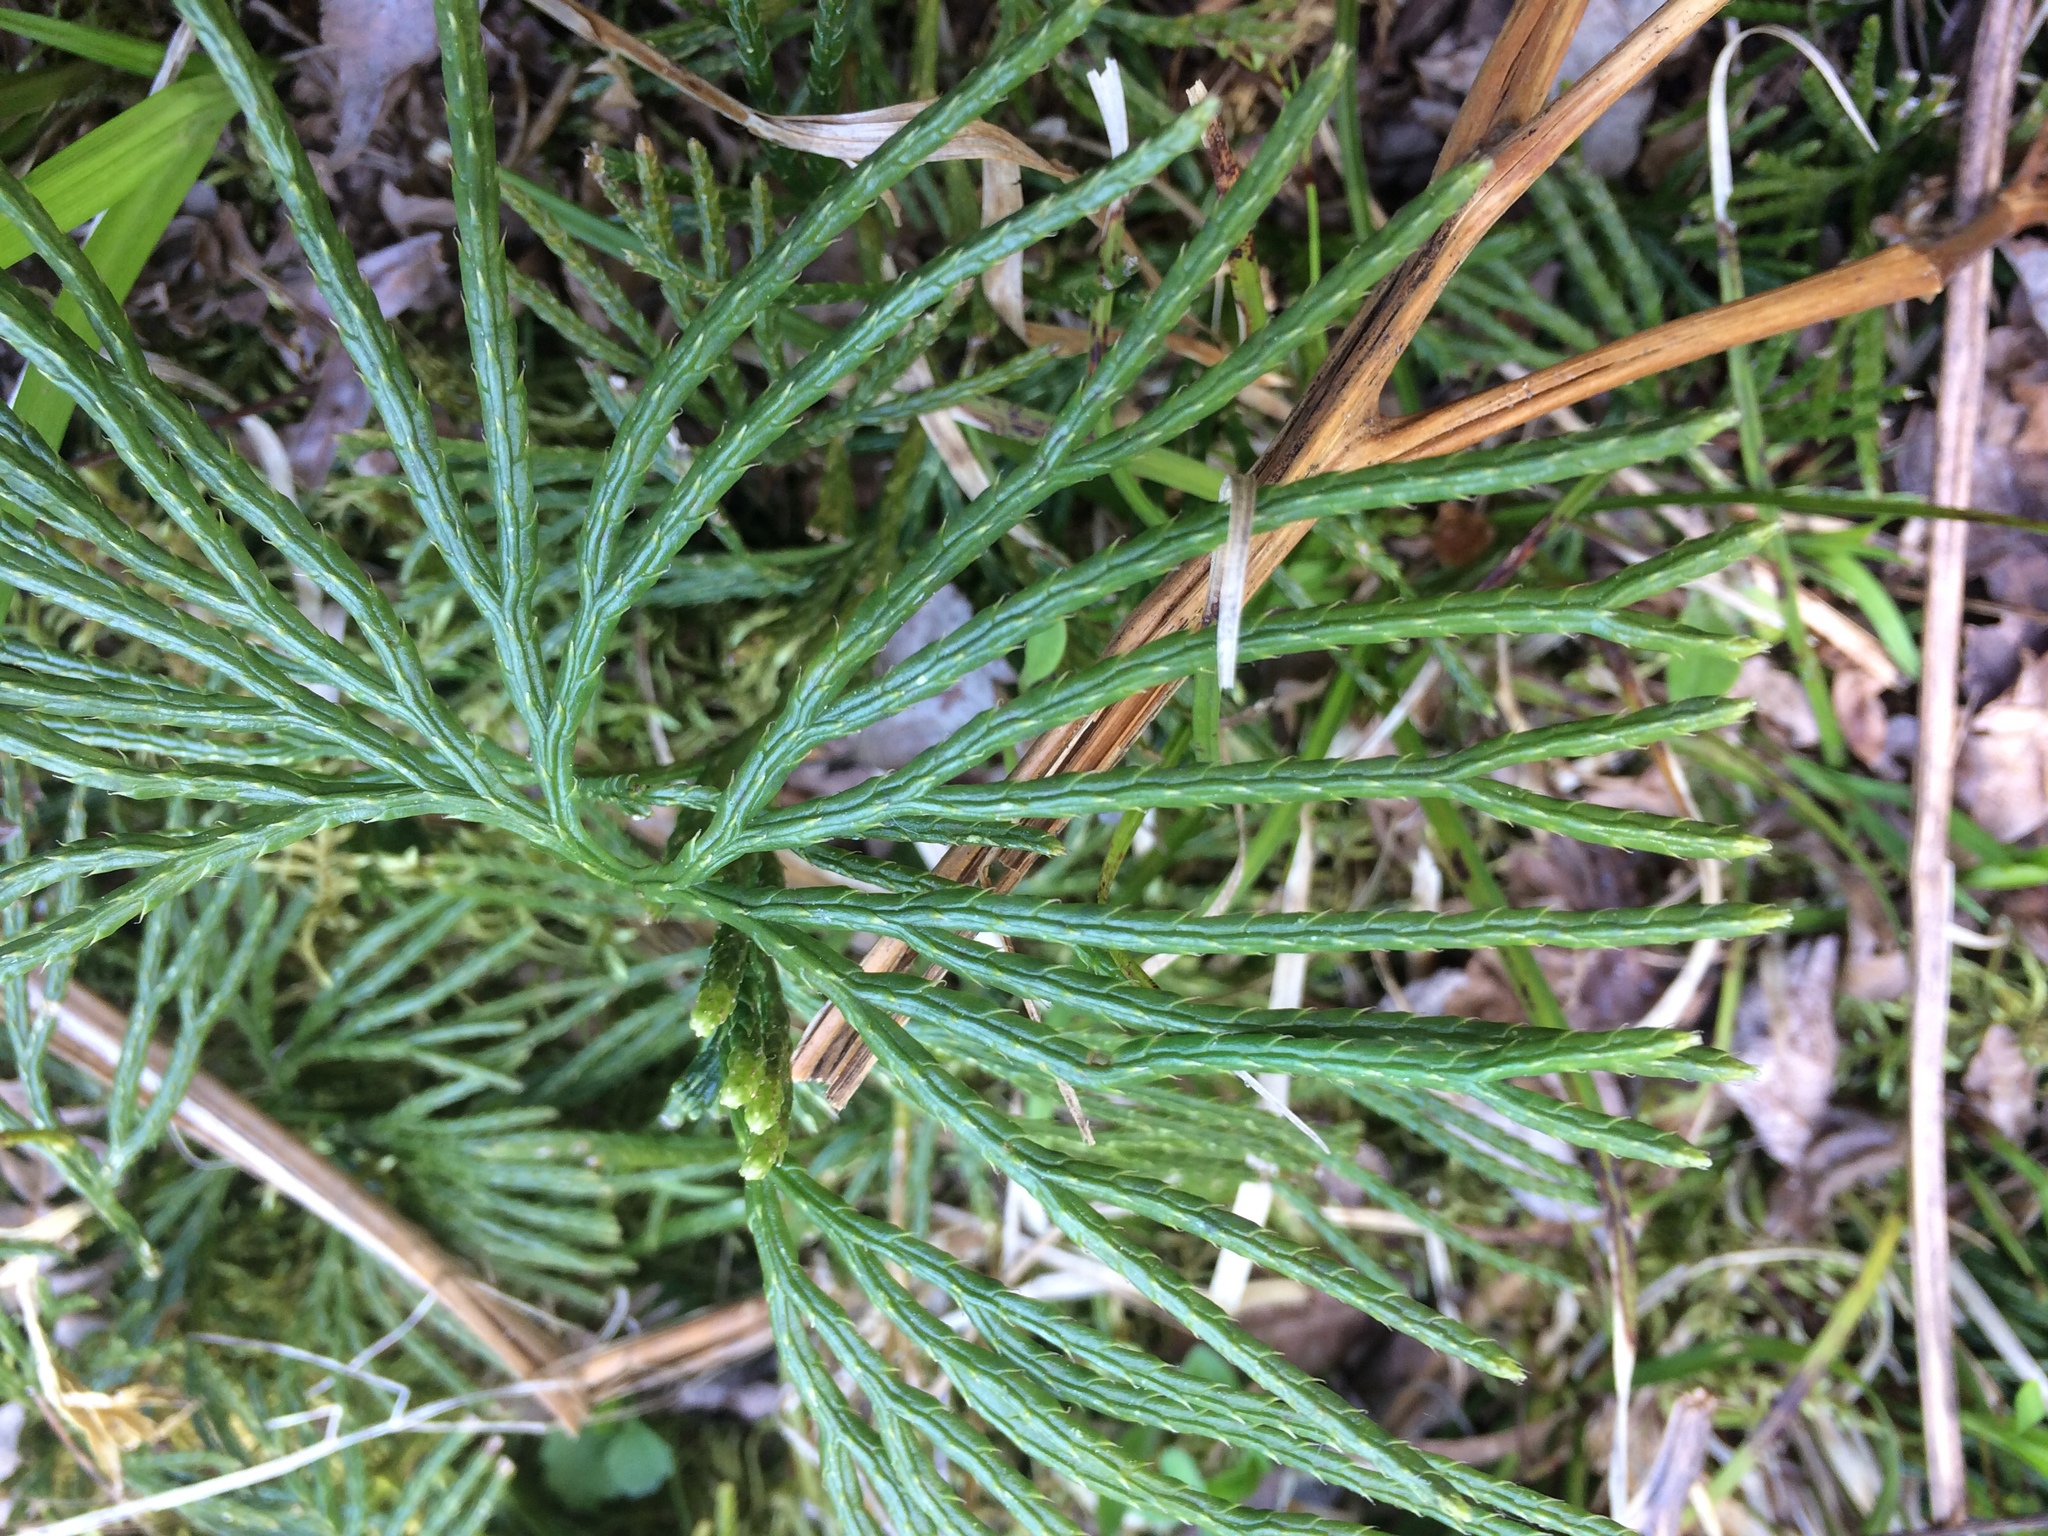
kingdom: Plantae
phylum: Tracheophyta
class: Lycopodiopsida
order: Lycopodiales
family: Lycopodiaceae
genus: Diphasiastrum
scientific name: Diphasiastrum digitatum
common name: Southern running-pine
